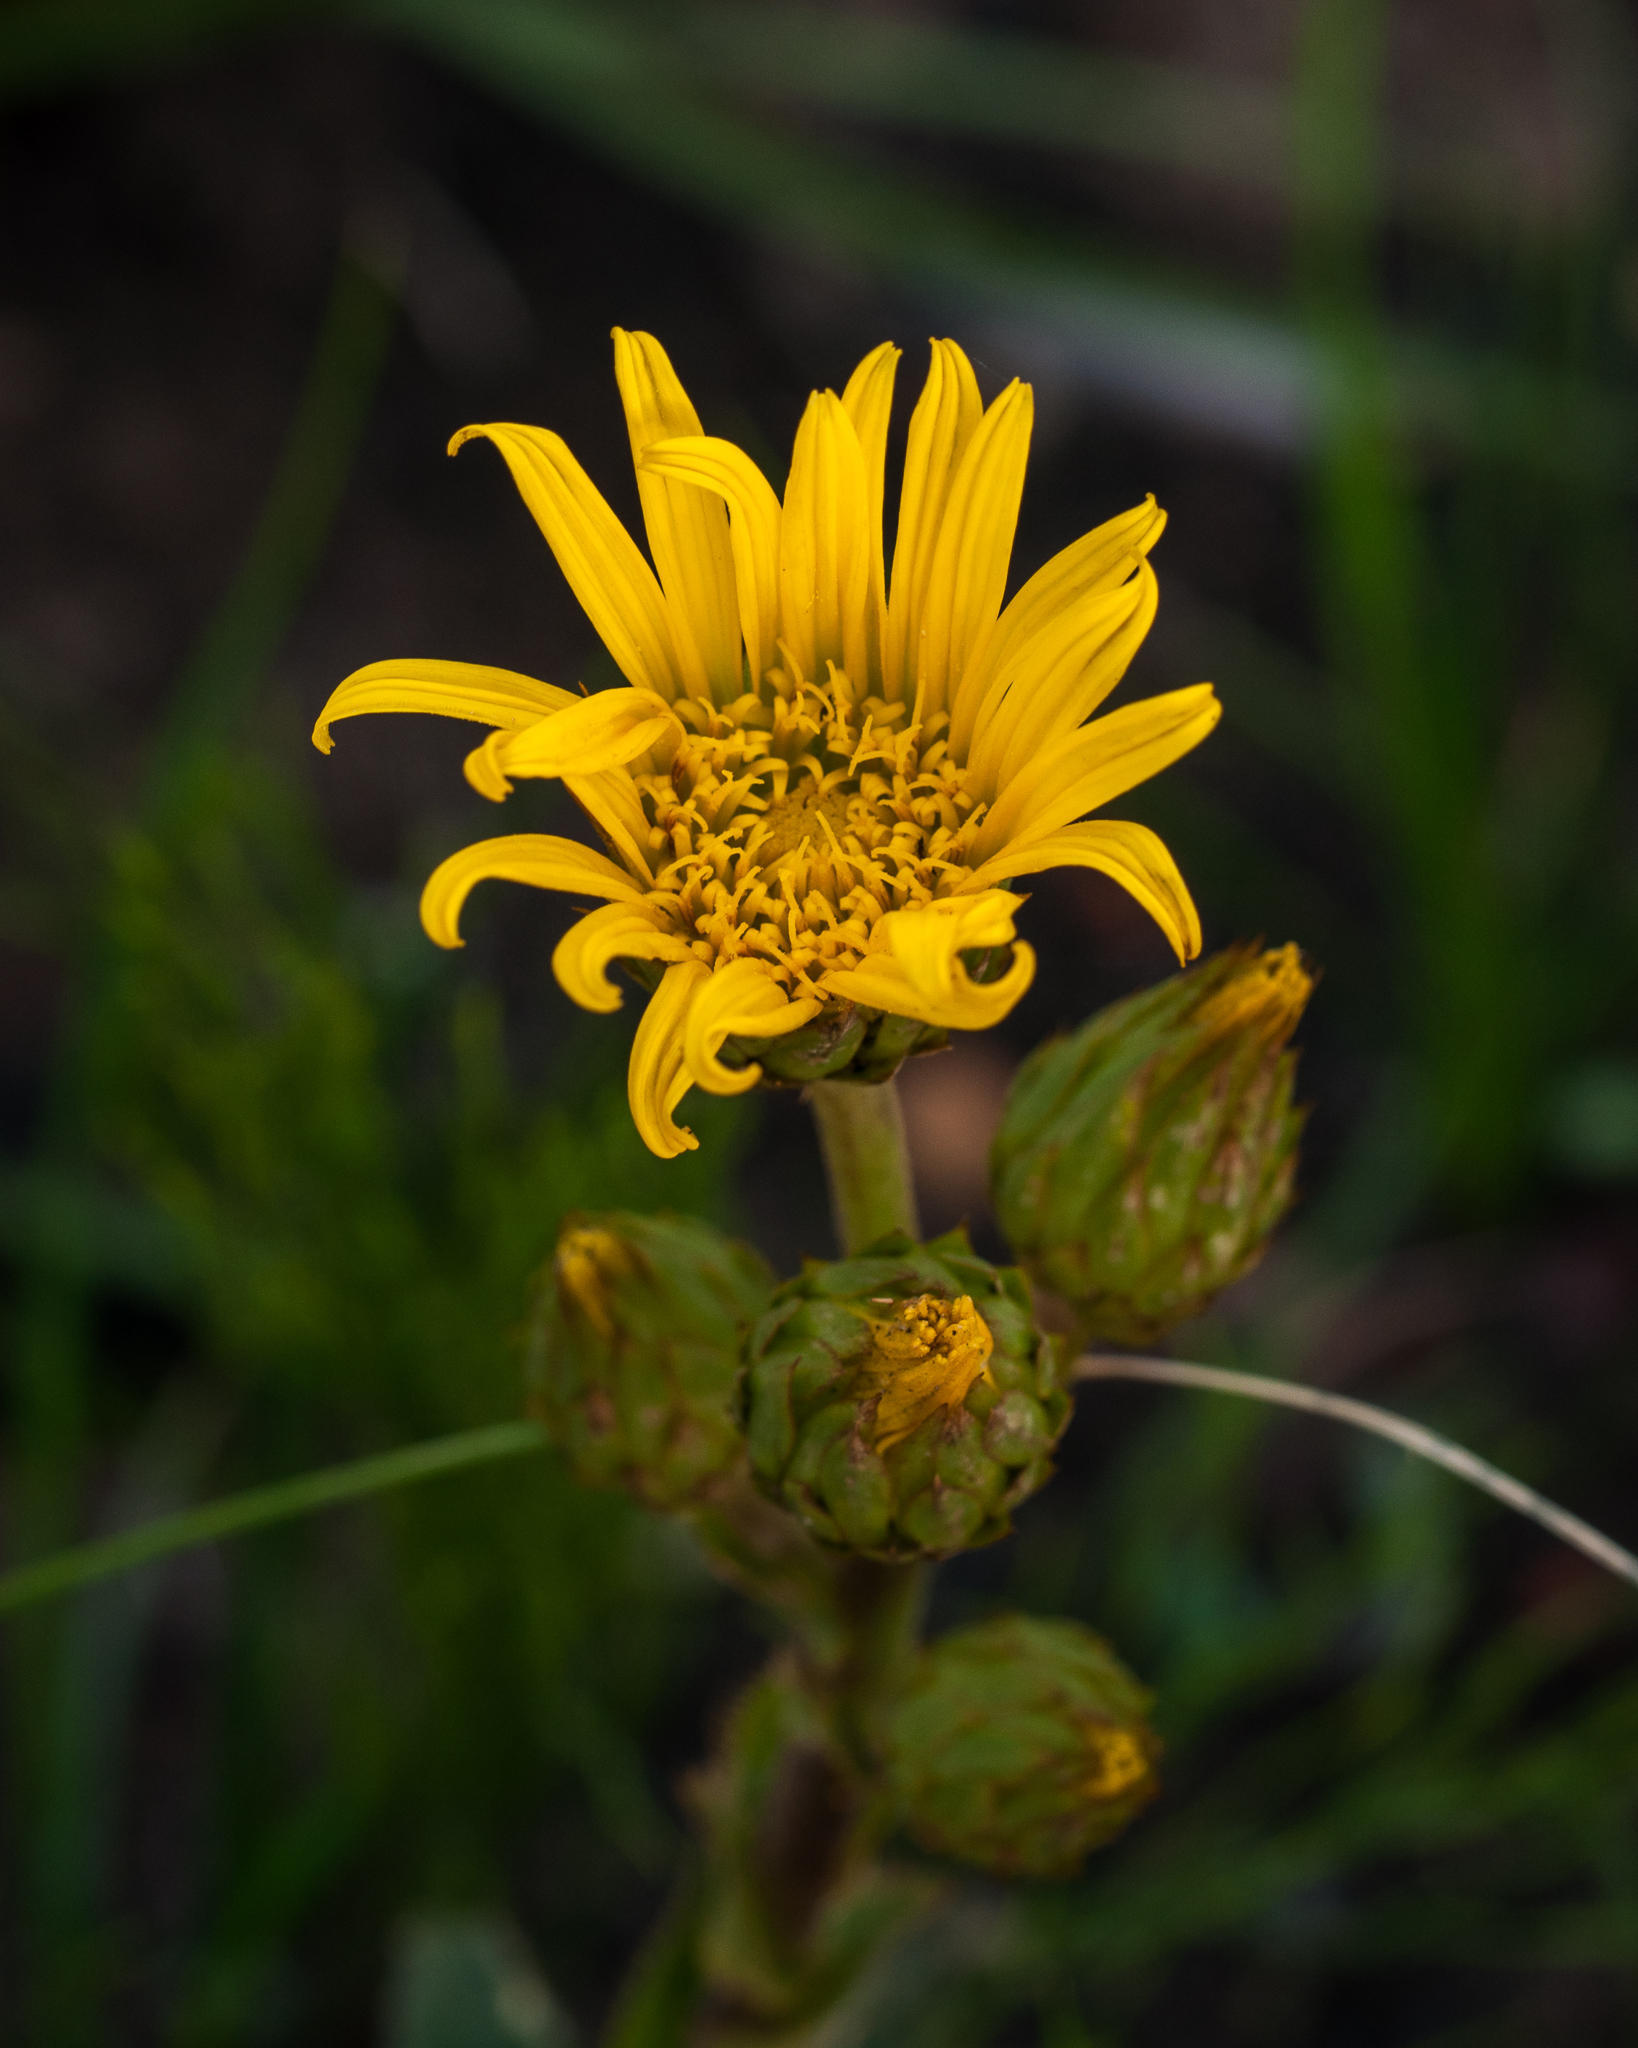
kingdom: Plantae
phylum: Tracheophyta
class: Magnoliopsida
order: Asterales
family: Asteraceae
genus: Berkheya
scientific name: Berkheya herbacea
